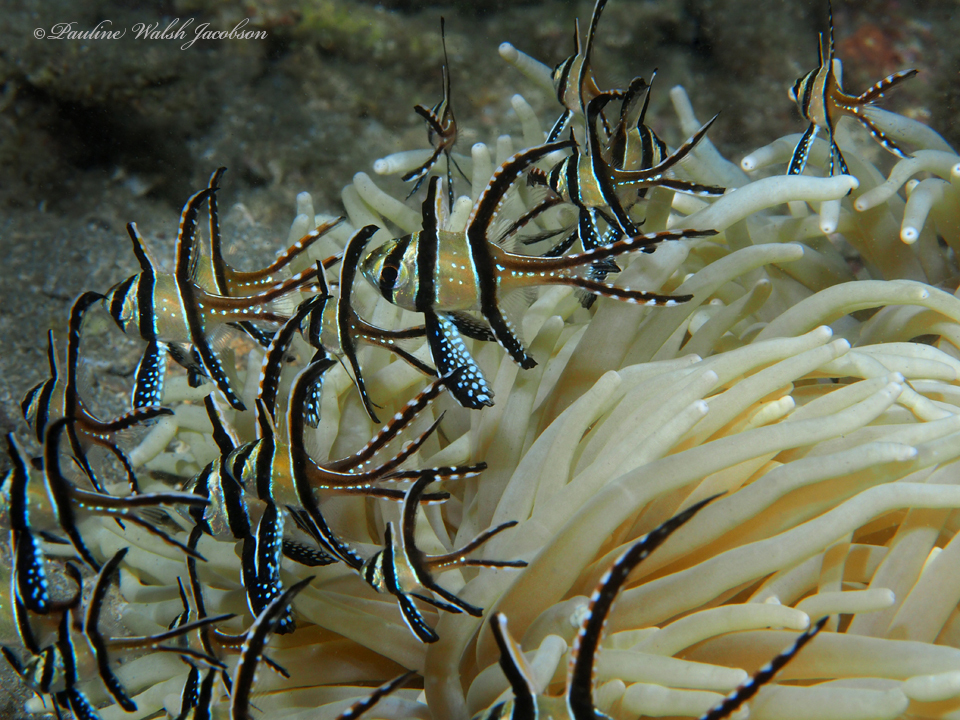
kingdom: Animalia
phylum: Chordata
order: Perciformes
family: Apogonidae
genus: Pterapogon
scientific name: Pterapogon kauderni
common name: Banggai cardinalfish
